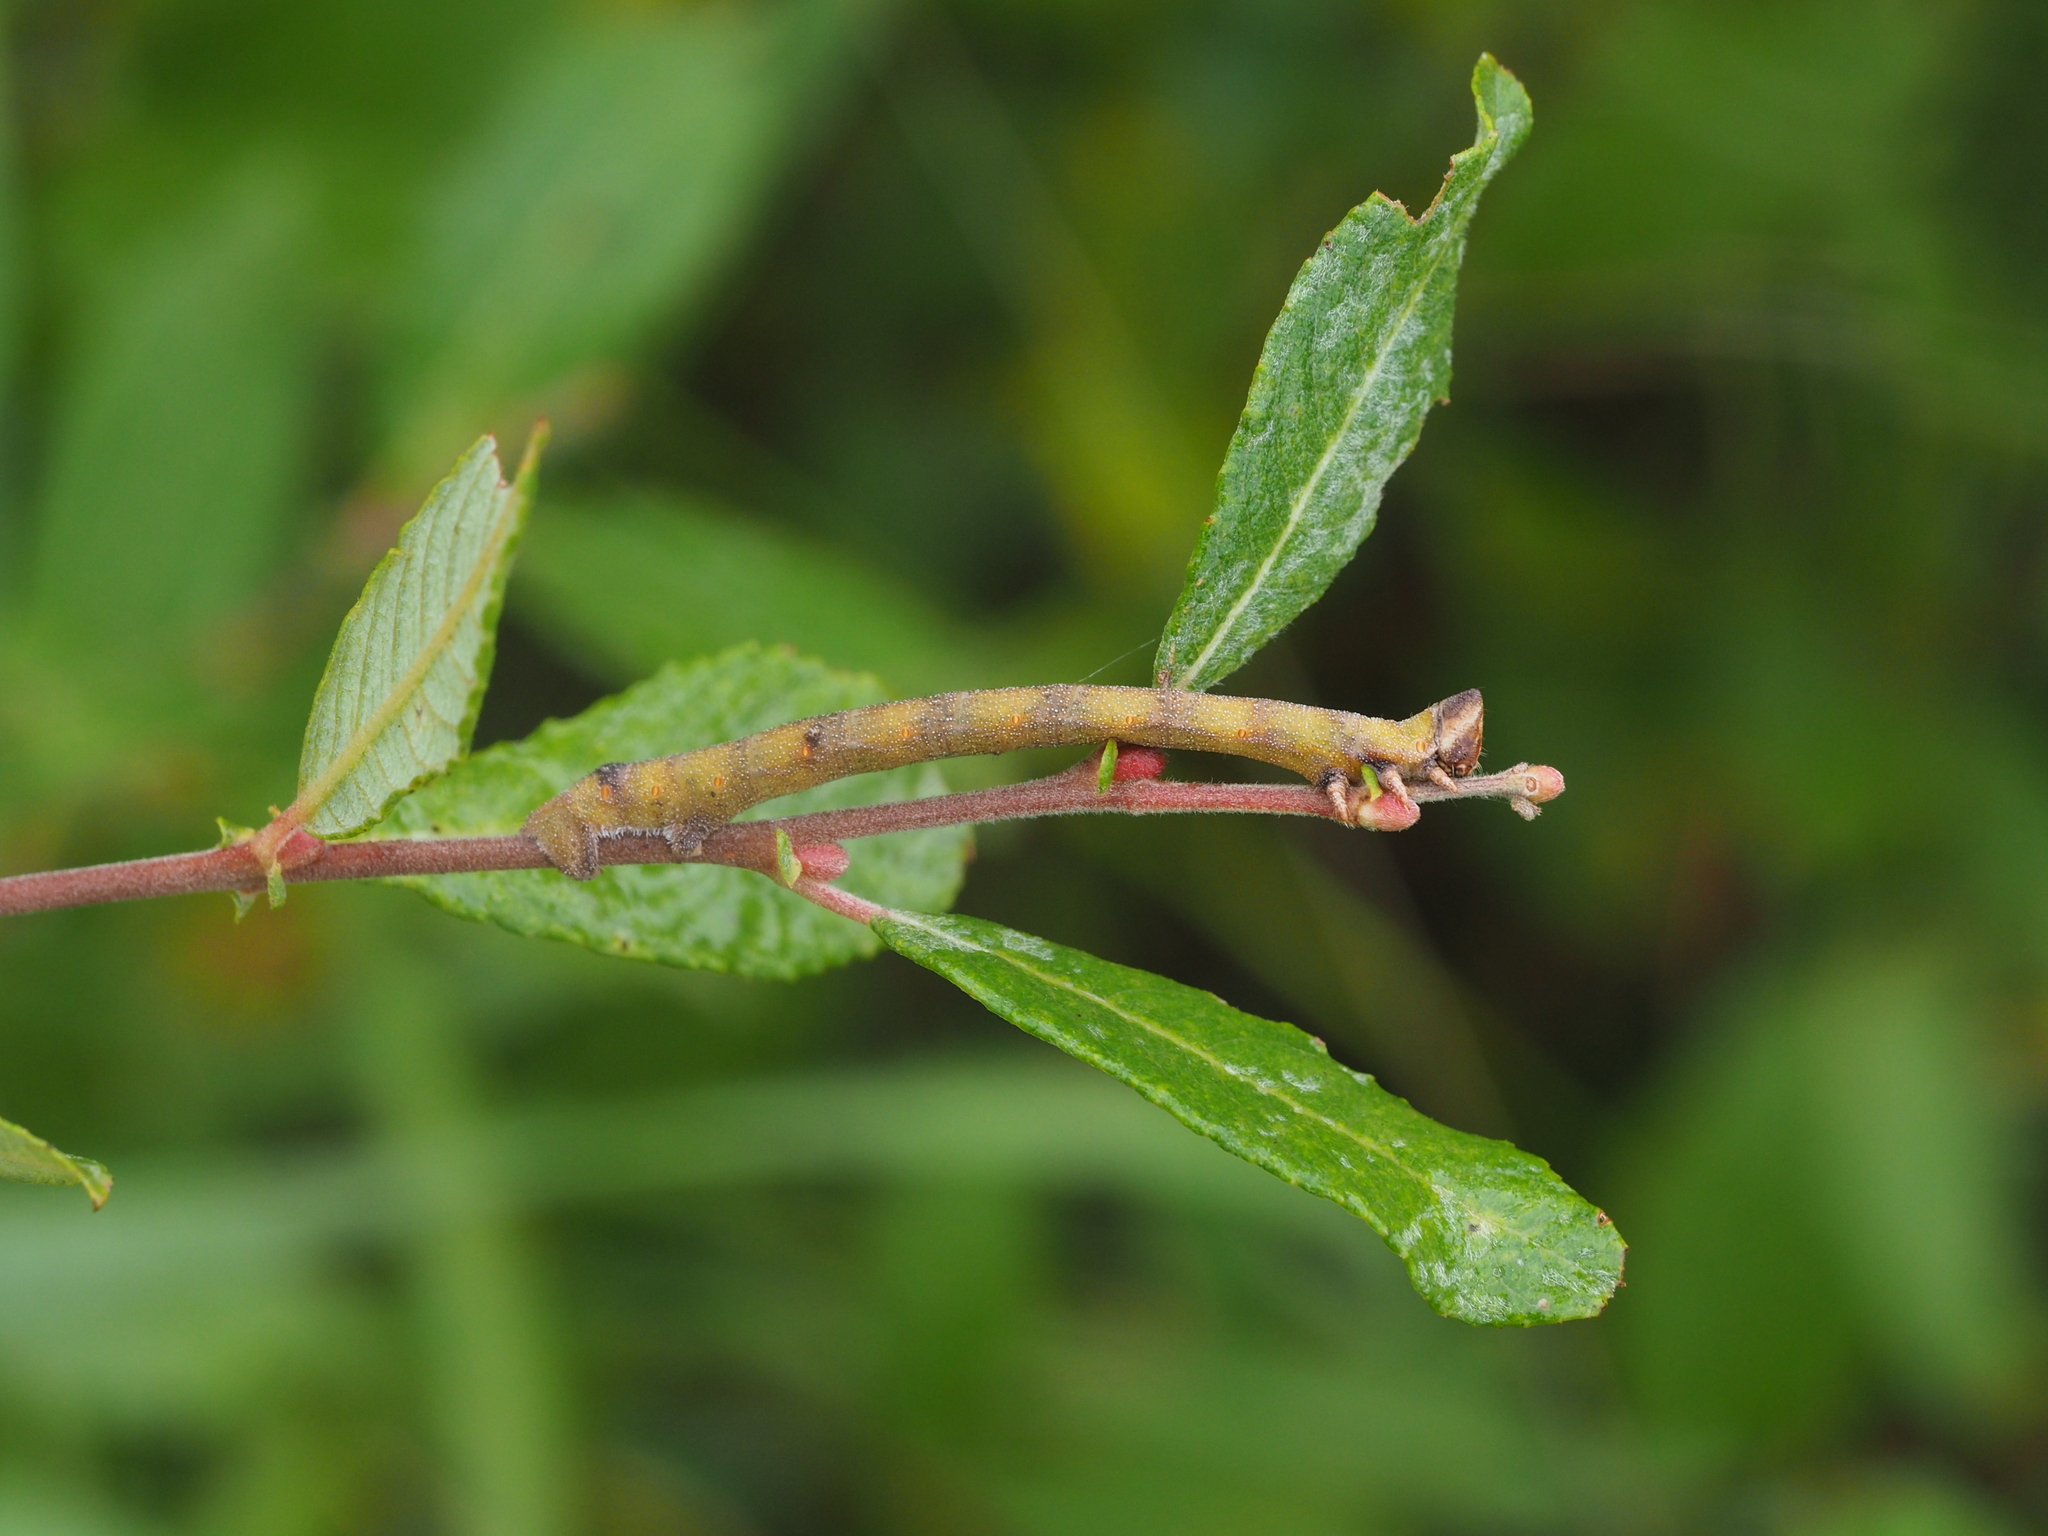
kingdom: Animalia
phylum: Arthropoda
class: Insecta
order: Lepidoptera
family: Geometridae
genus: Biston
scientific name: Biston betularia
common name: Peppered moth
